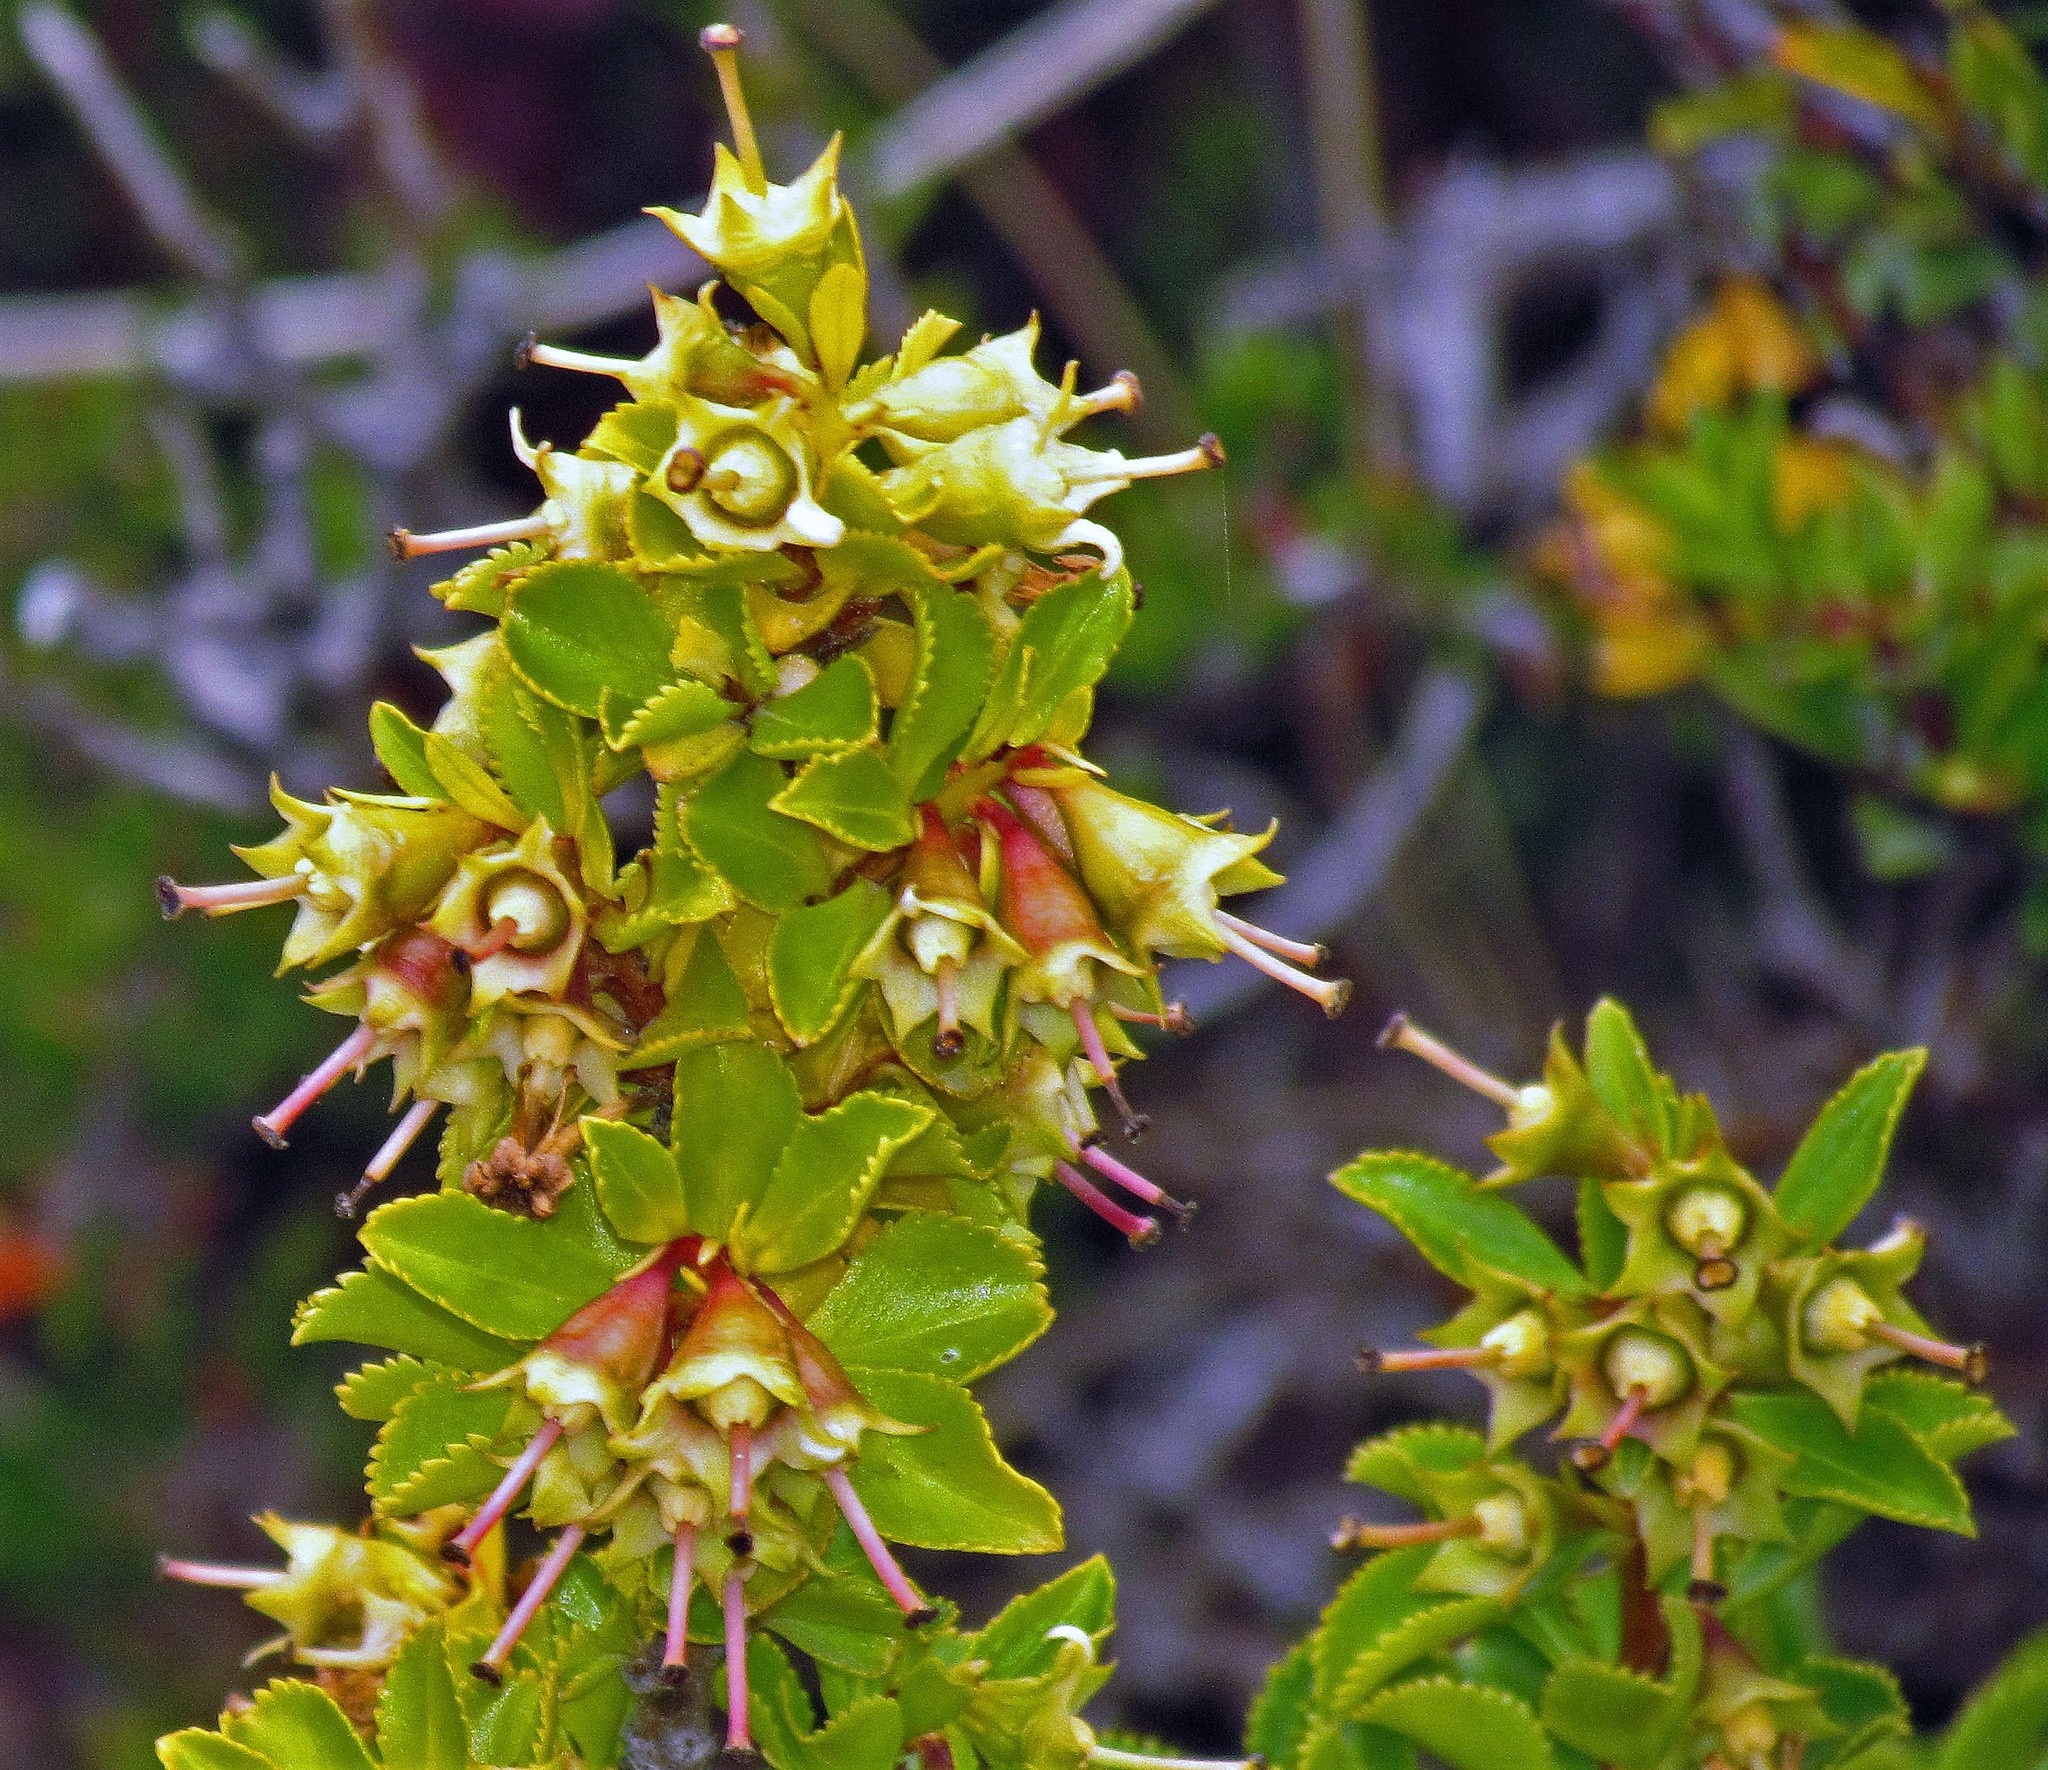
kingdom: Plantae
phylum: Tracheophyta
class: Magnoliopsida
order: Escalloniales
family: Escalloniaceae
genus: Escallonia
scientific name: Escallonia rubra
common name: Redclaws
